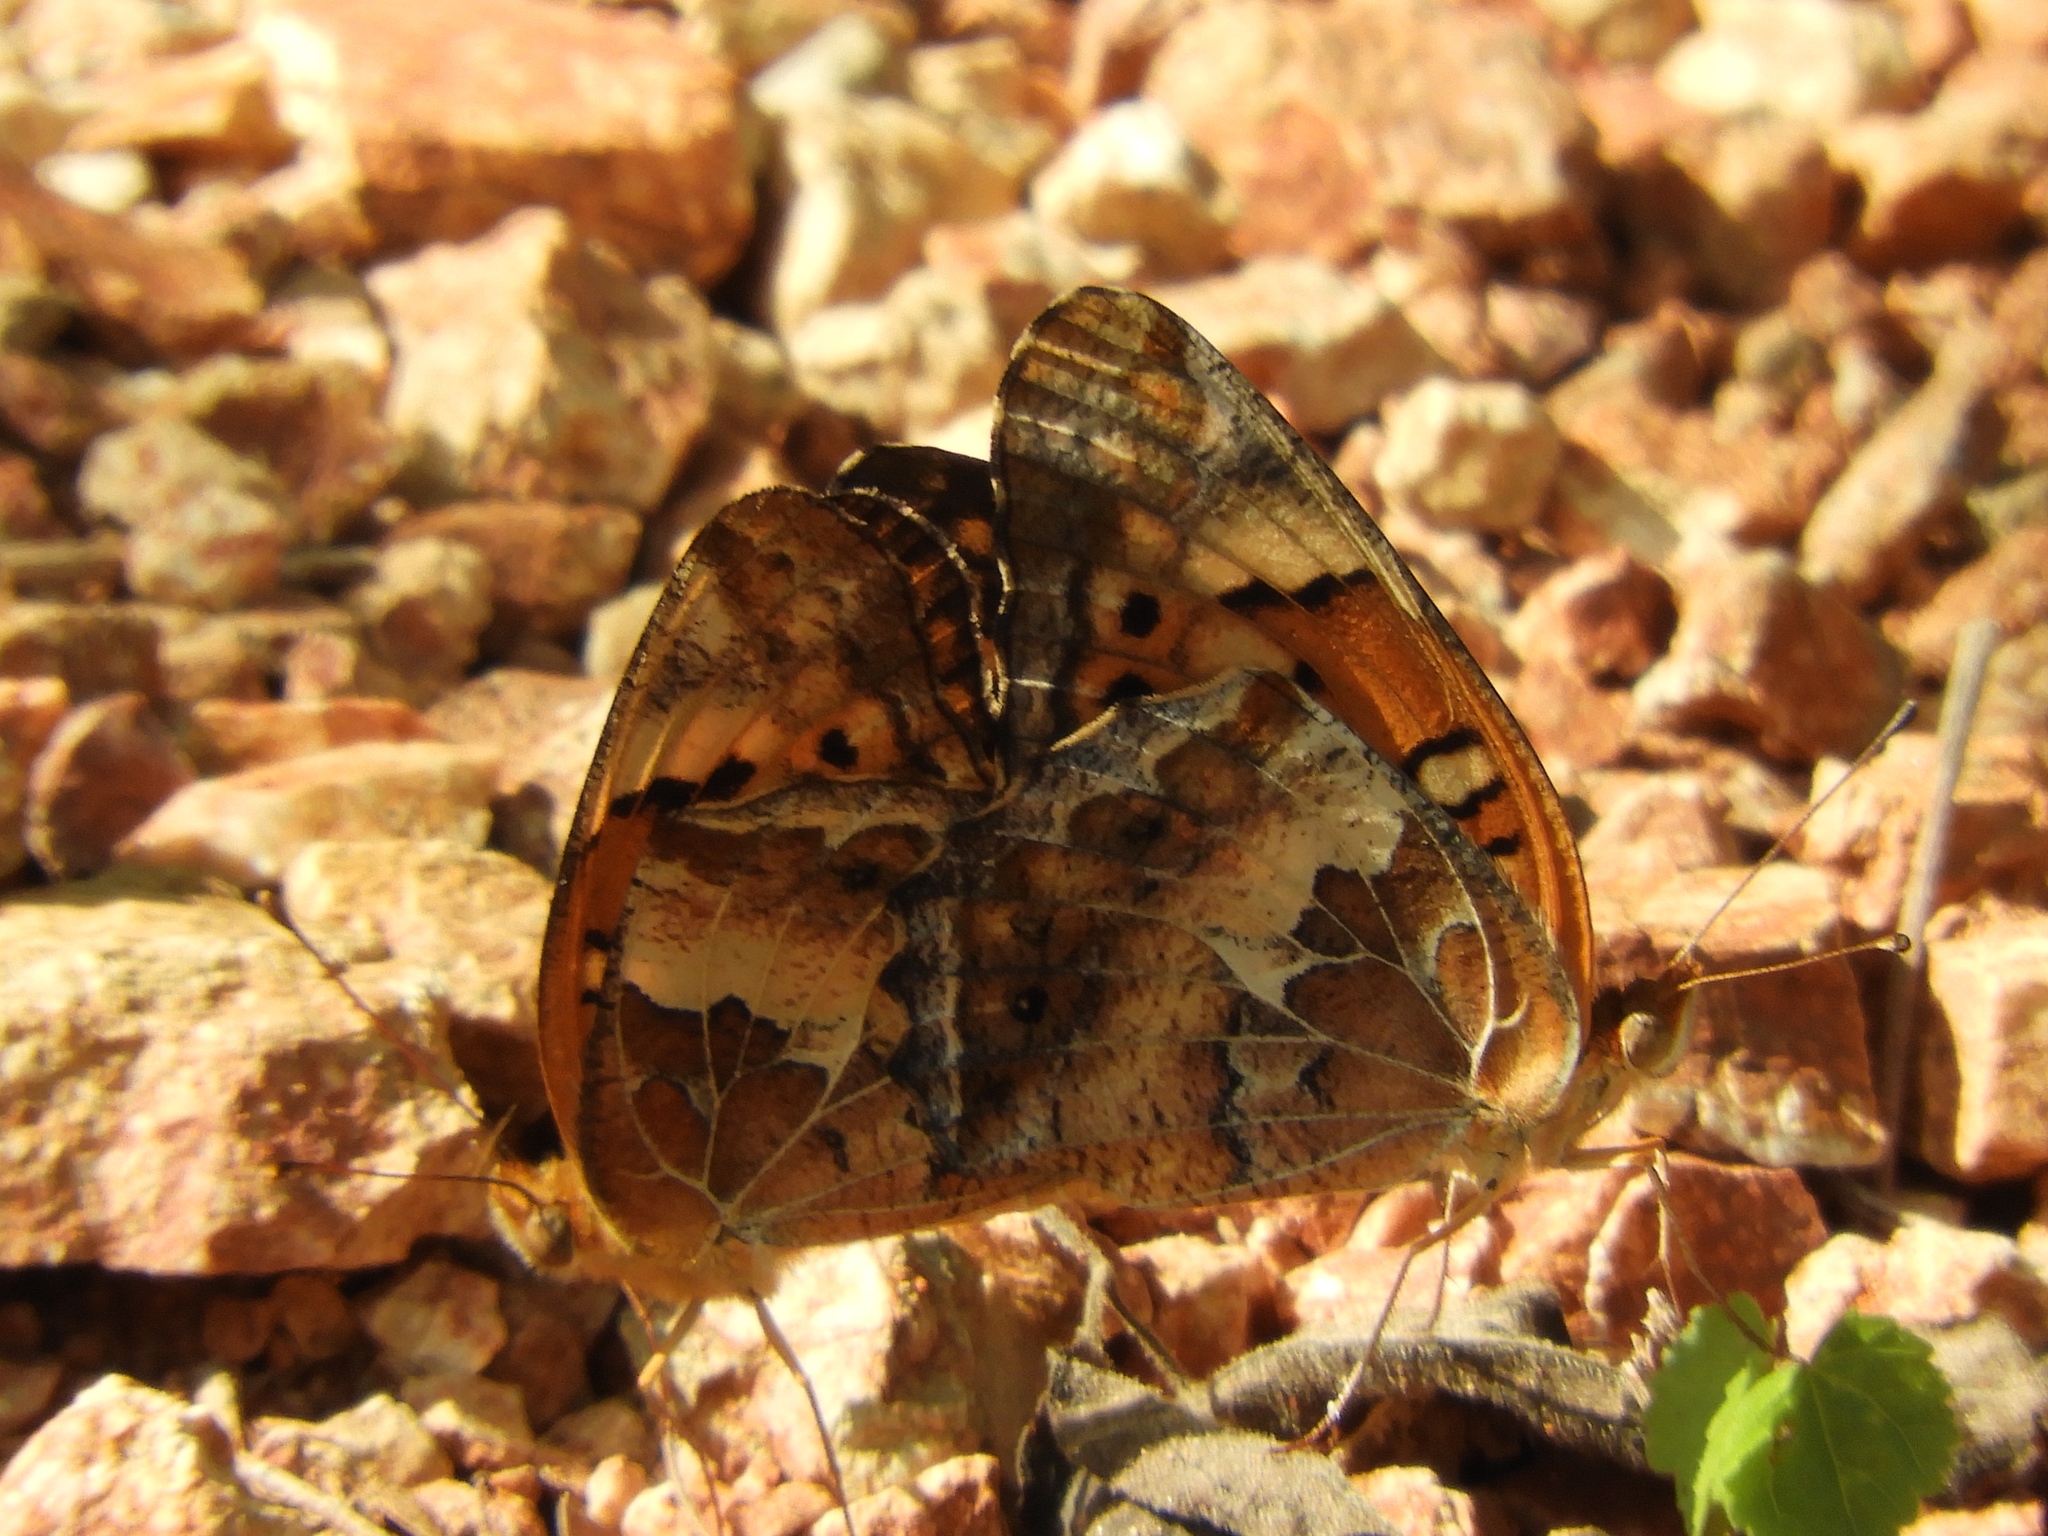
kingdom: Animalia
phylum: Arthropoda
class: Insecta
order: Lepidoptera
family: Nymphalidae
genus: Euptoieta
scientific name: Euptoieta claudia
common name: Variegated fritillary
